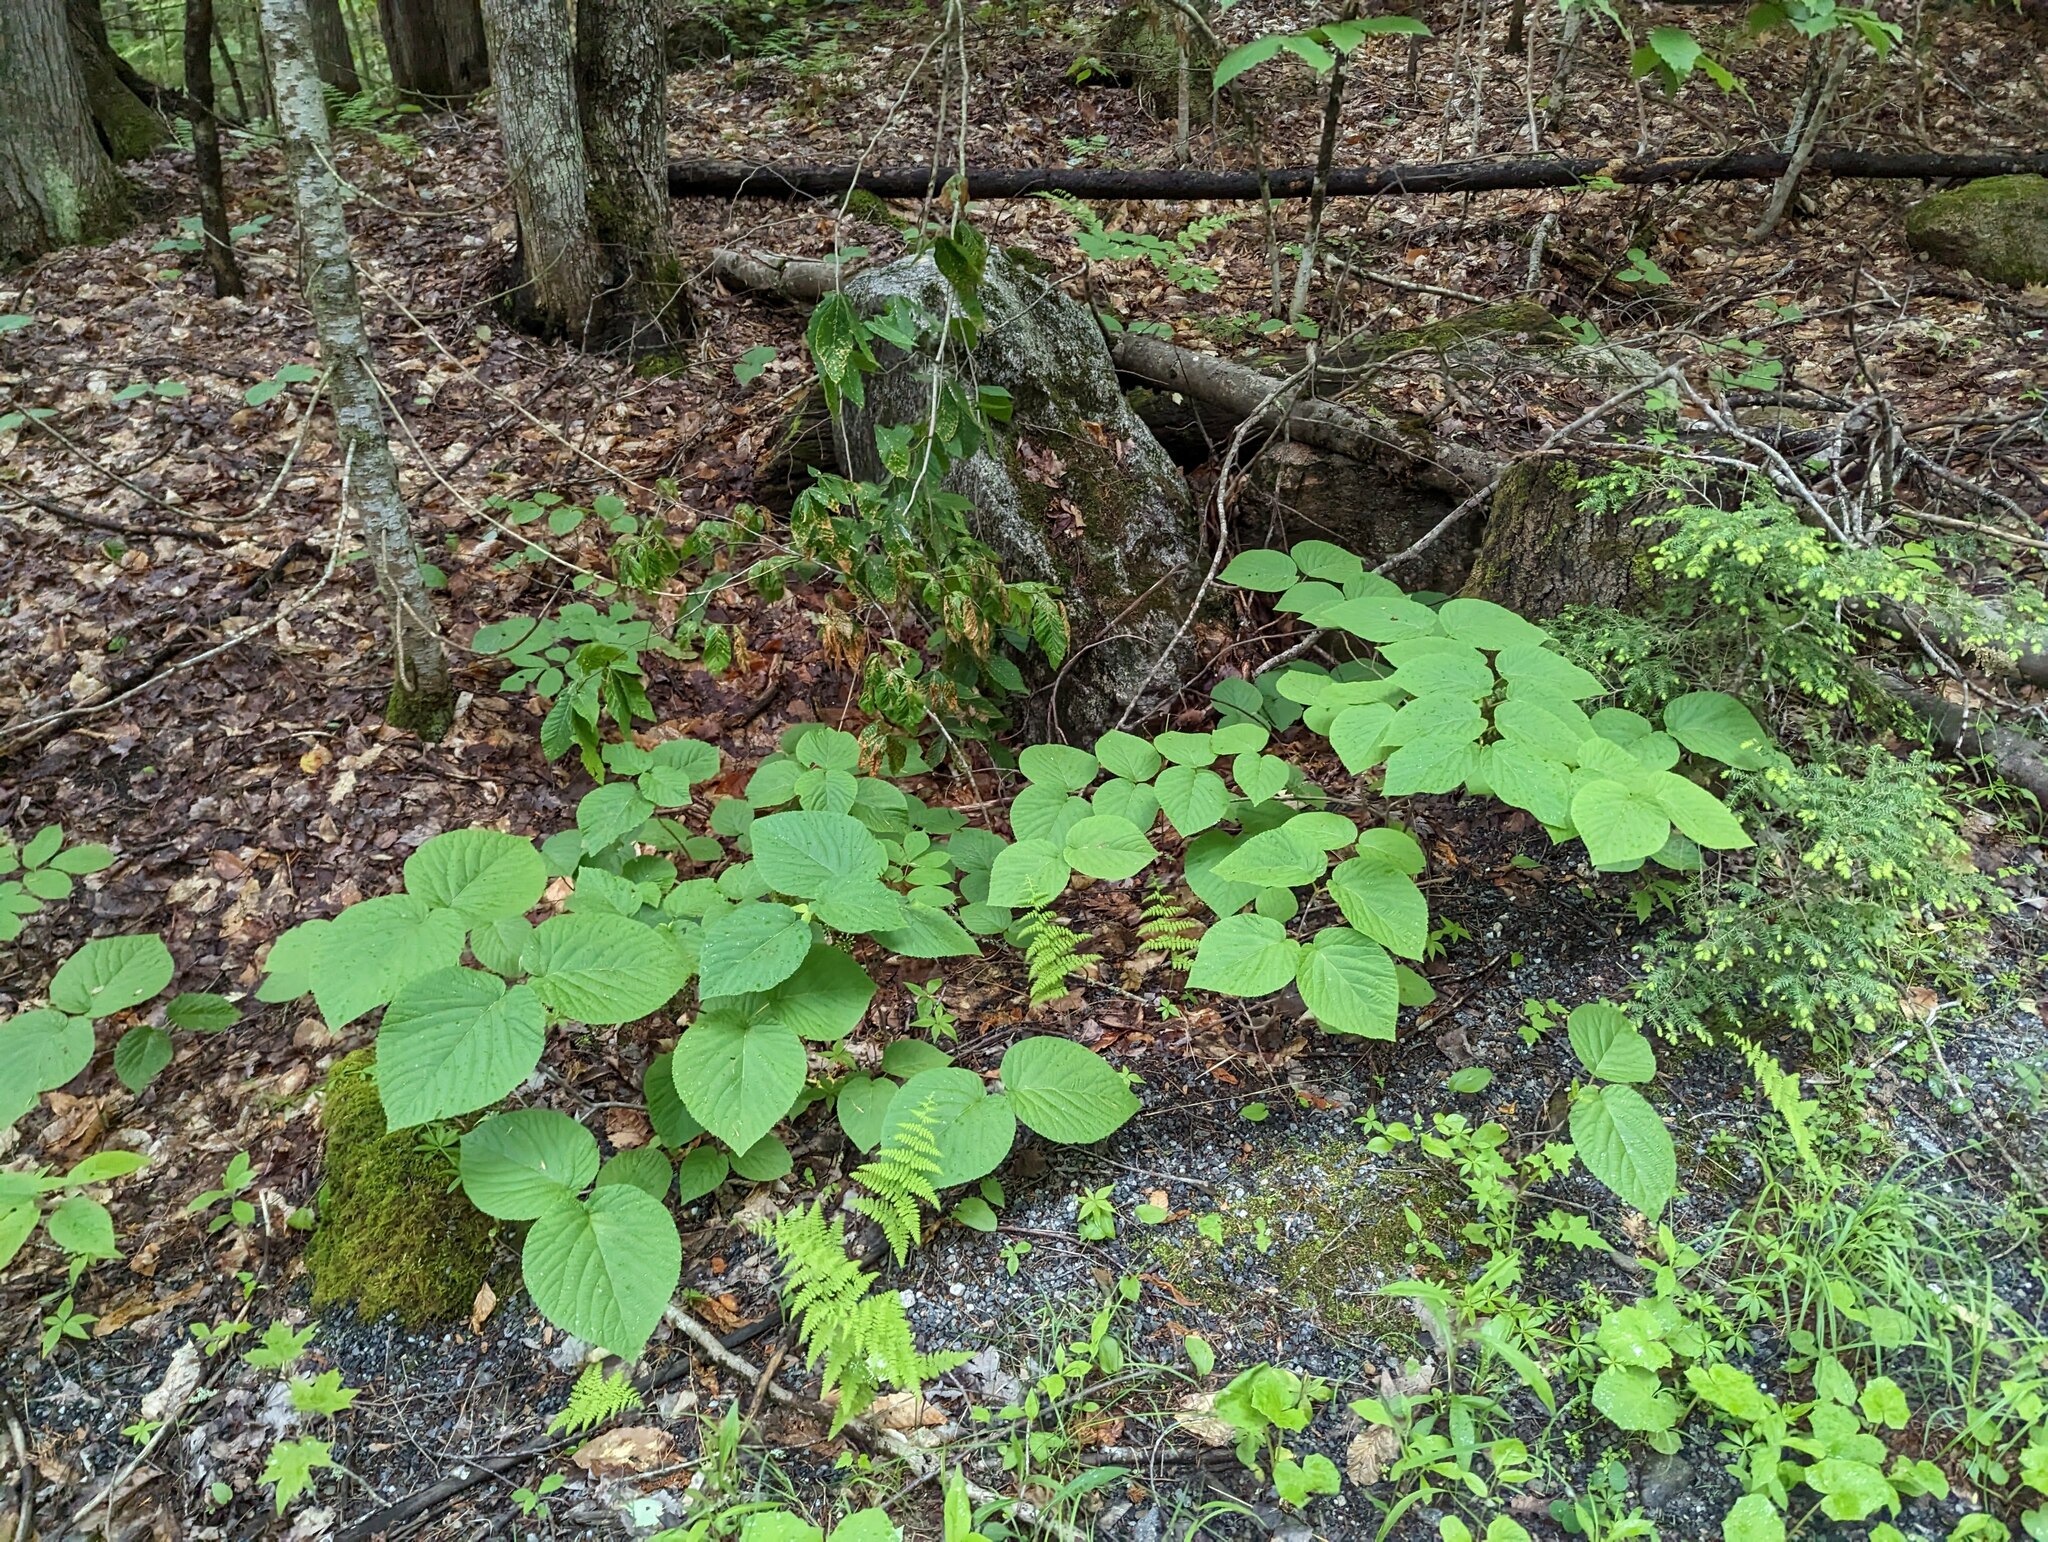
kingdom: Plantae
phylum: Tracheophyta
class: Magnoliopsida
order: Dipsacales
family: Viburnaceae
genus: Viburnum
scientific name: Viburnum lantanoides
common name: Hobblebush
